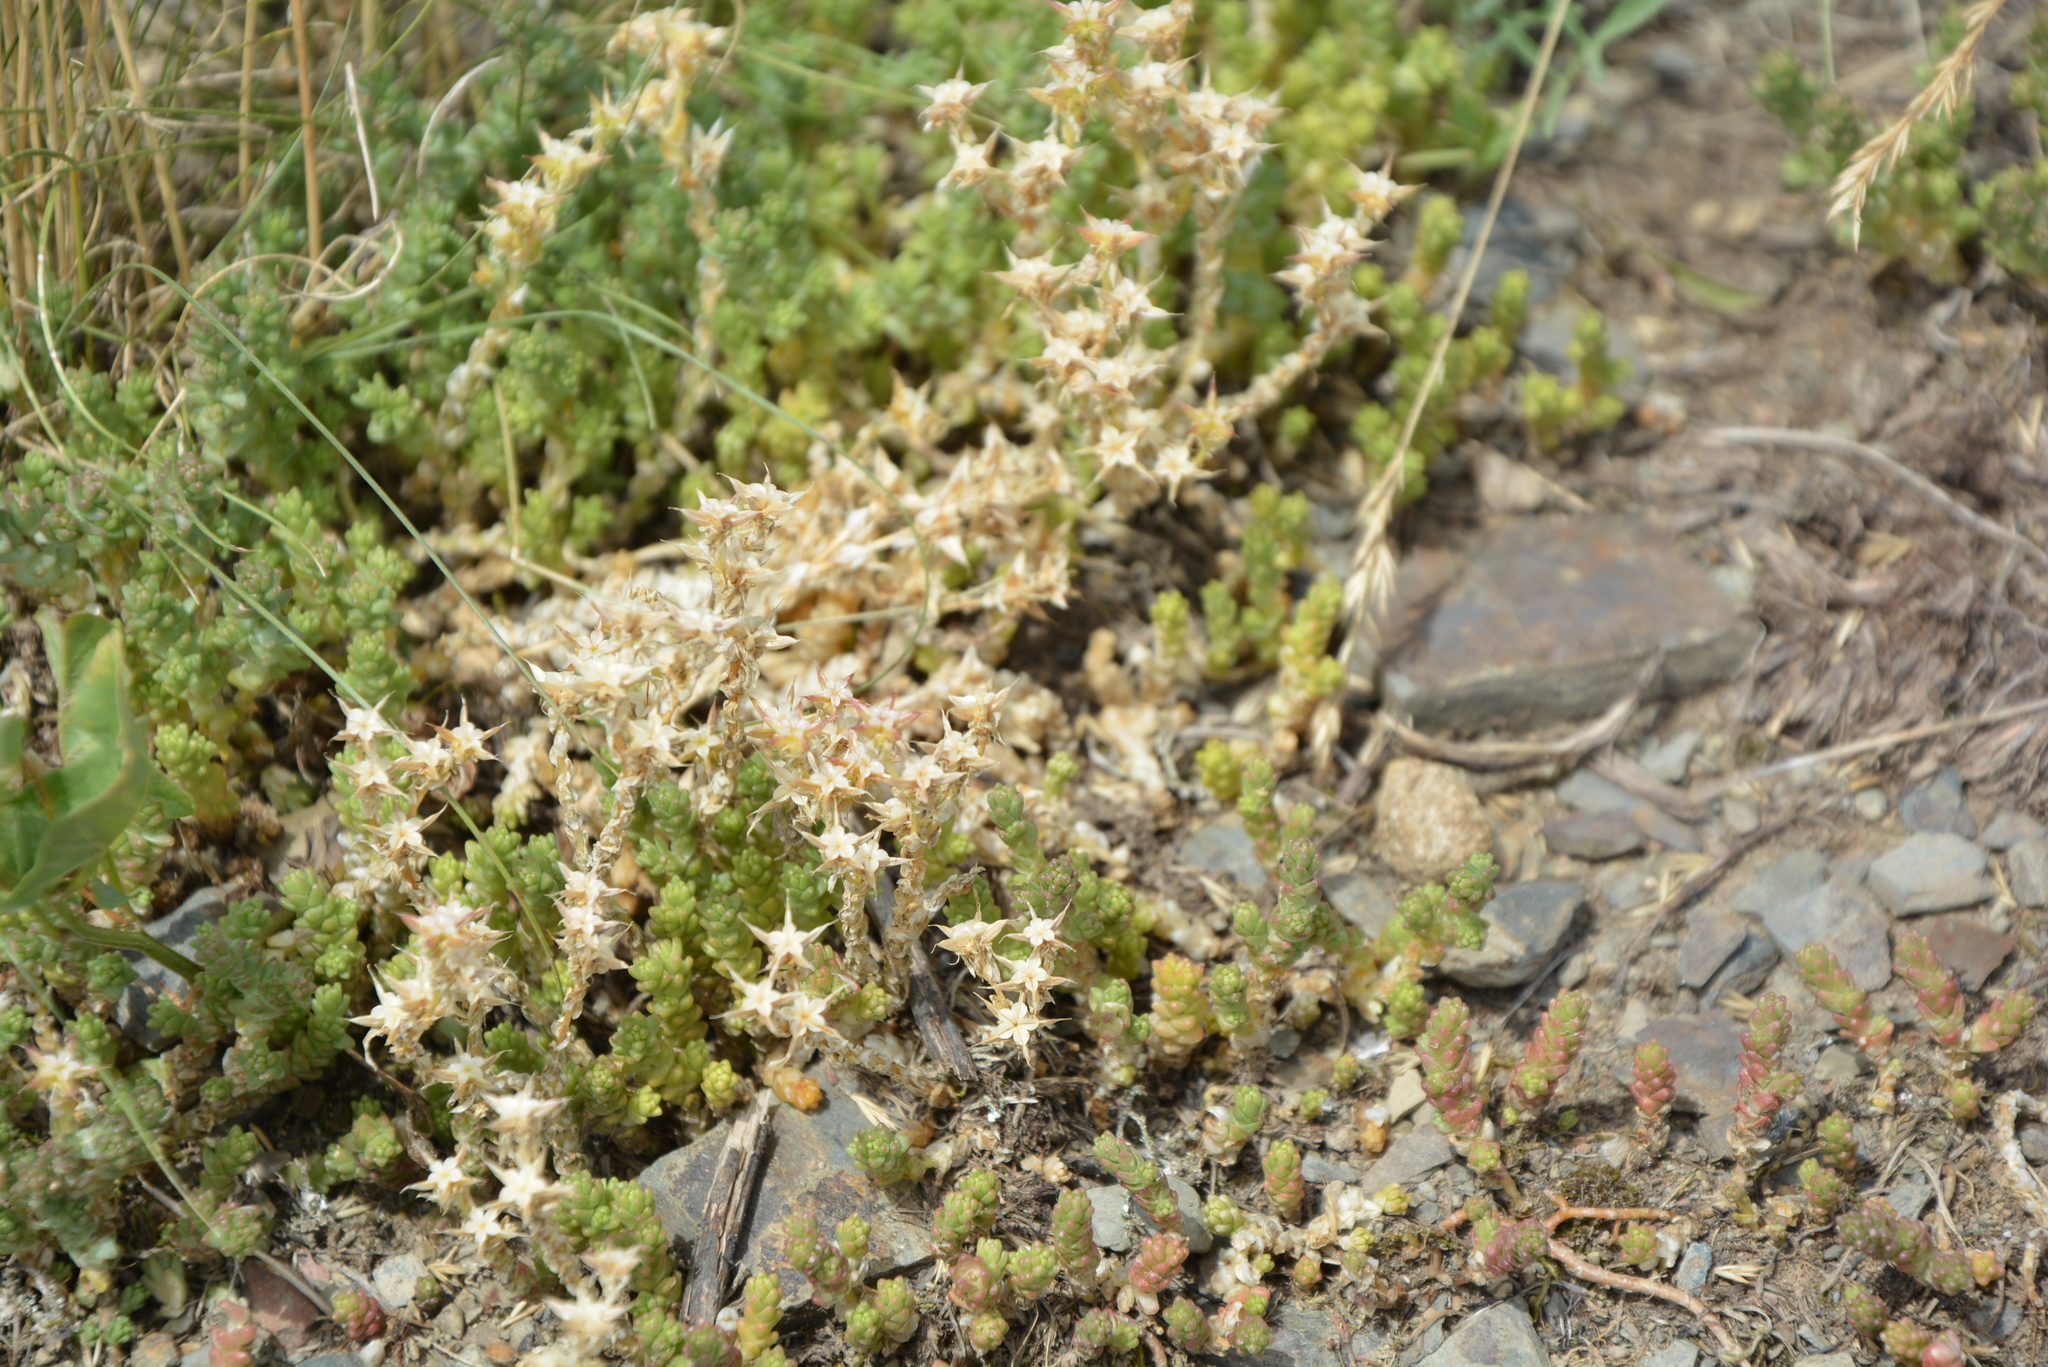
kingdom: Plantae
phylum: Tracheophyta
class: Magnoliopsida
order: Saxifragales
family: Crassulaceae
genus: Sedum
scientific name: Sedum acre
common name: Biting stonecrop
